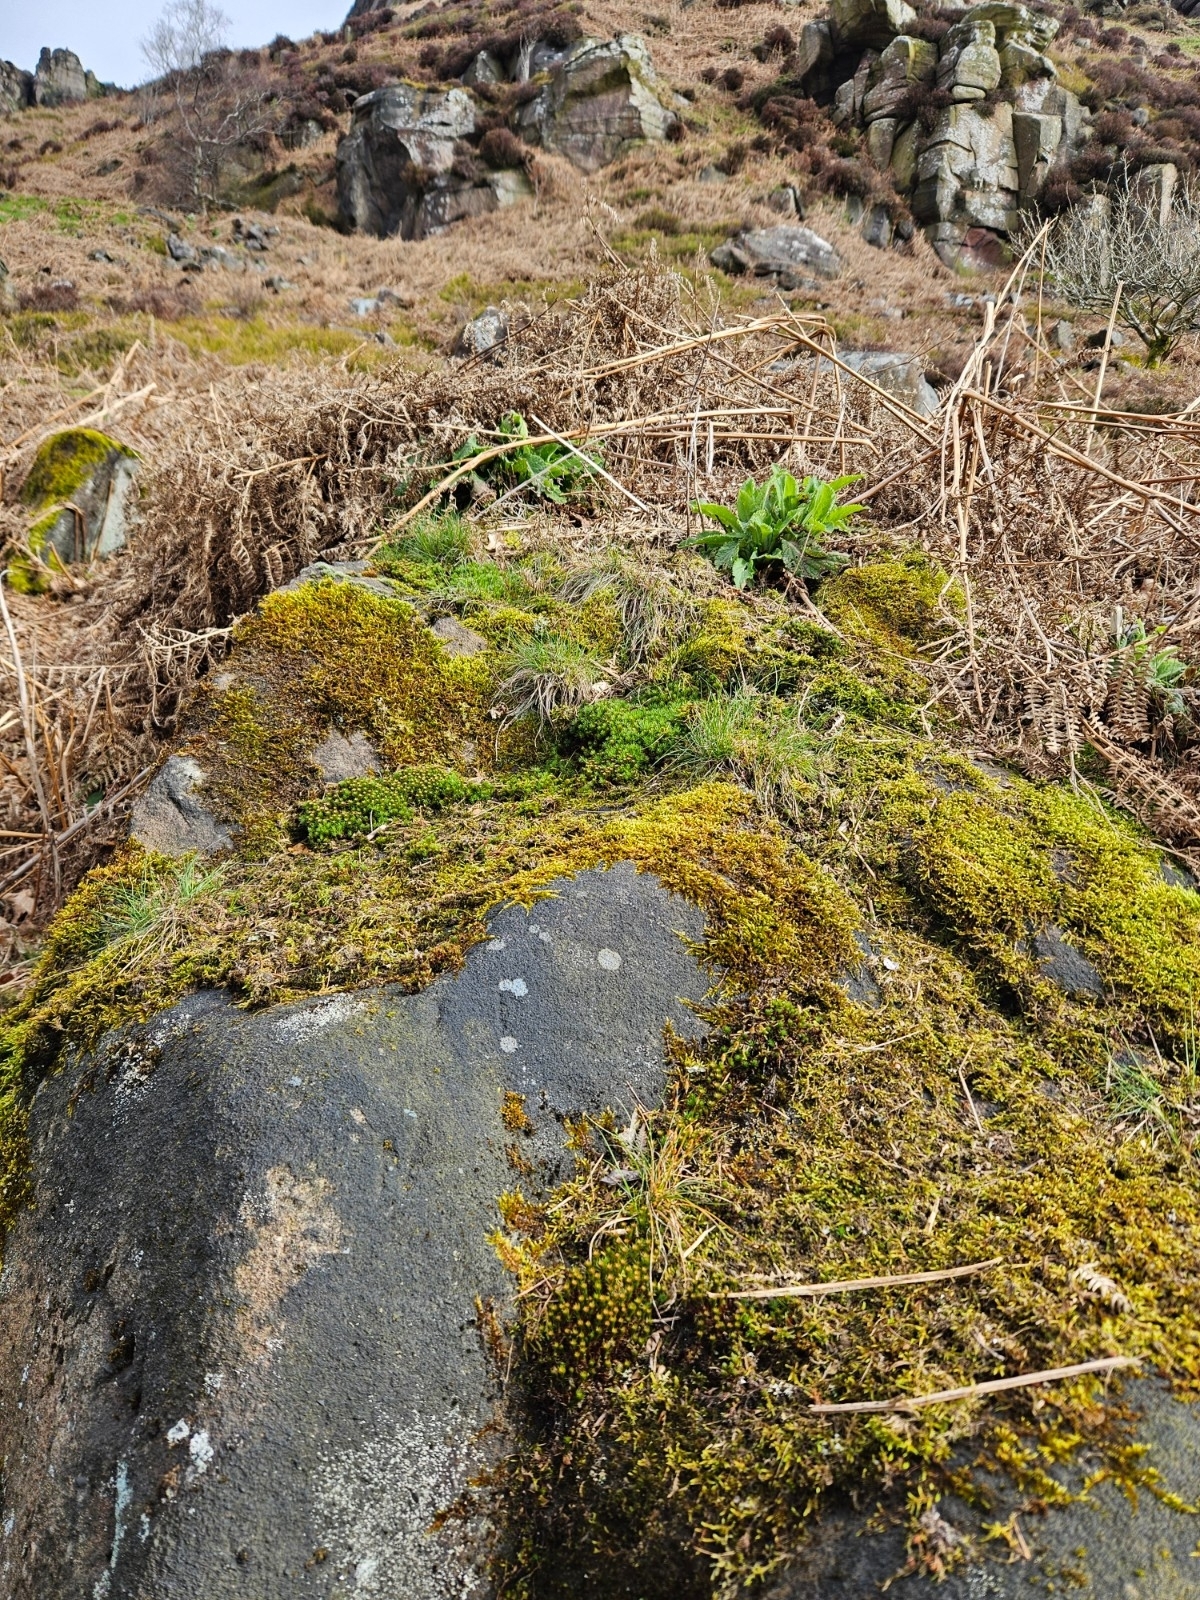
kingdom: Plantae
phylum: Bryophyta
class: Polytrichopsida
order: Polytrichales
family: Polytrichaceae
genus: Polytrichum
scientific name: Polytrichum juniperinum
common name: Juniper haircap moss
